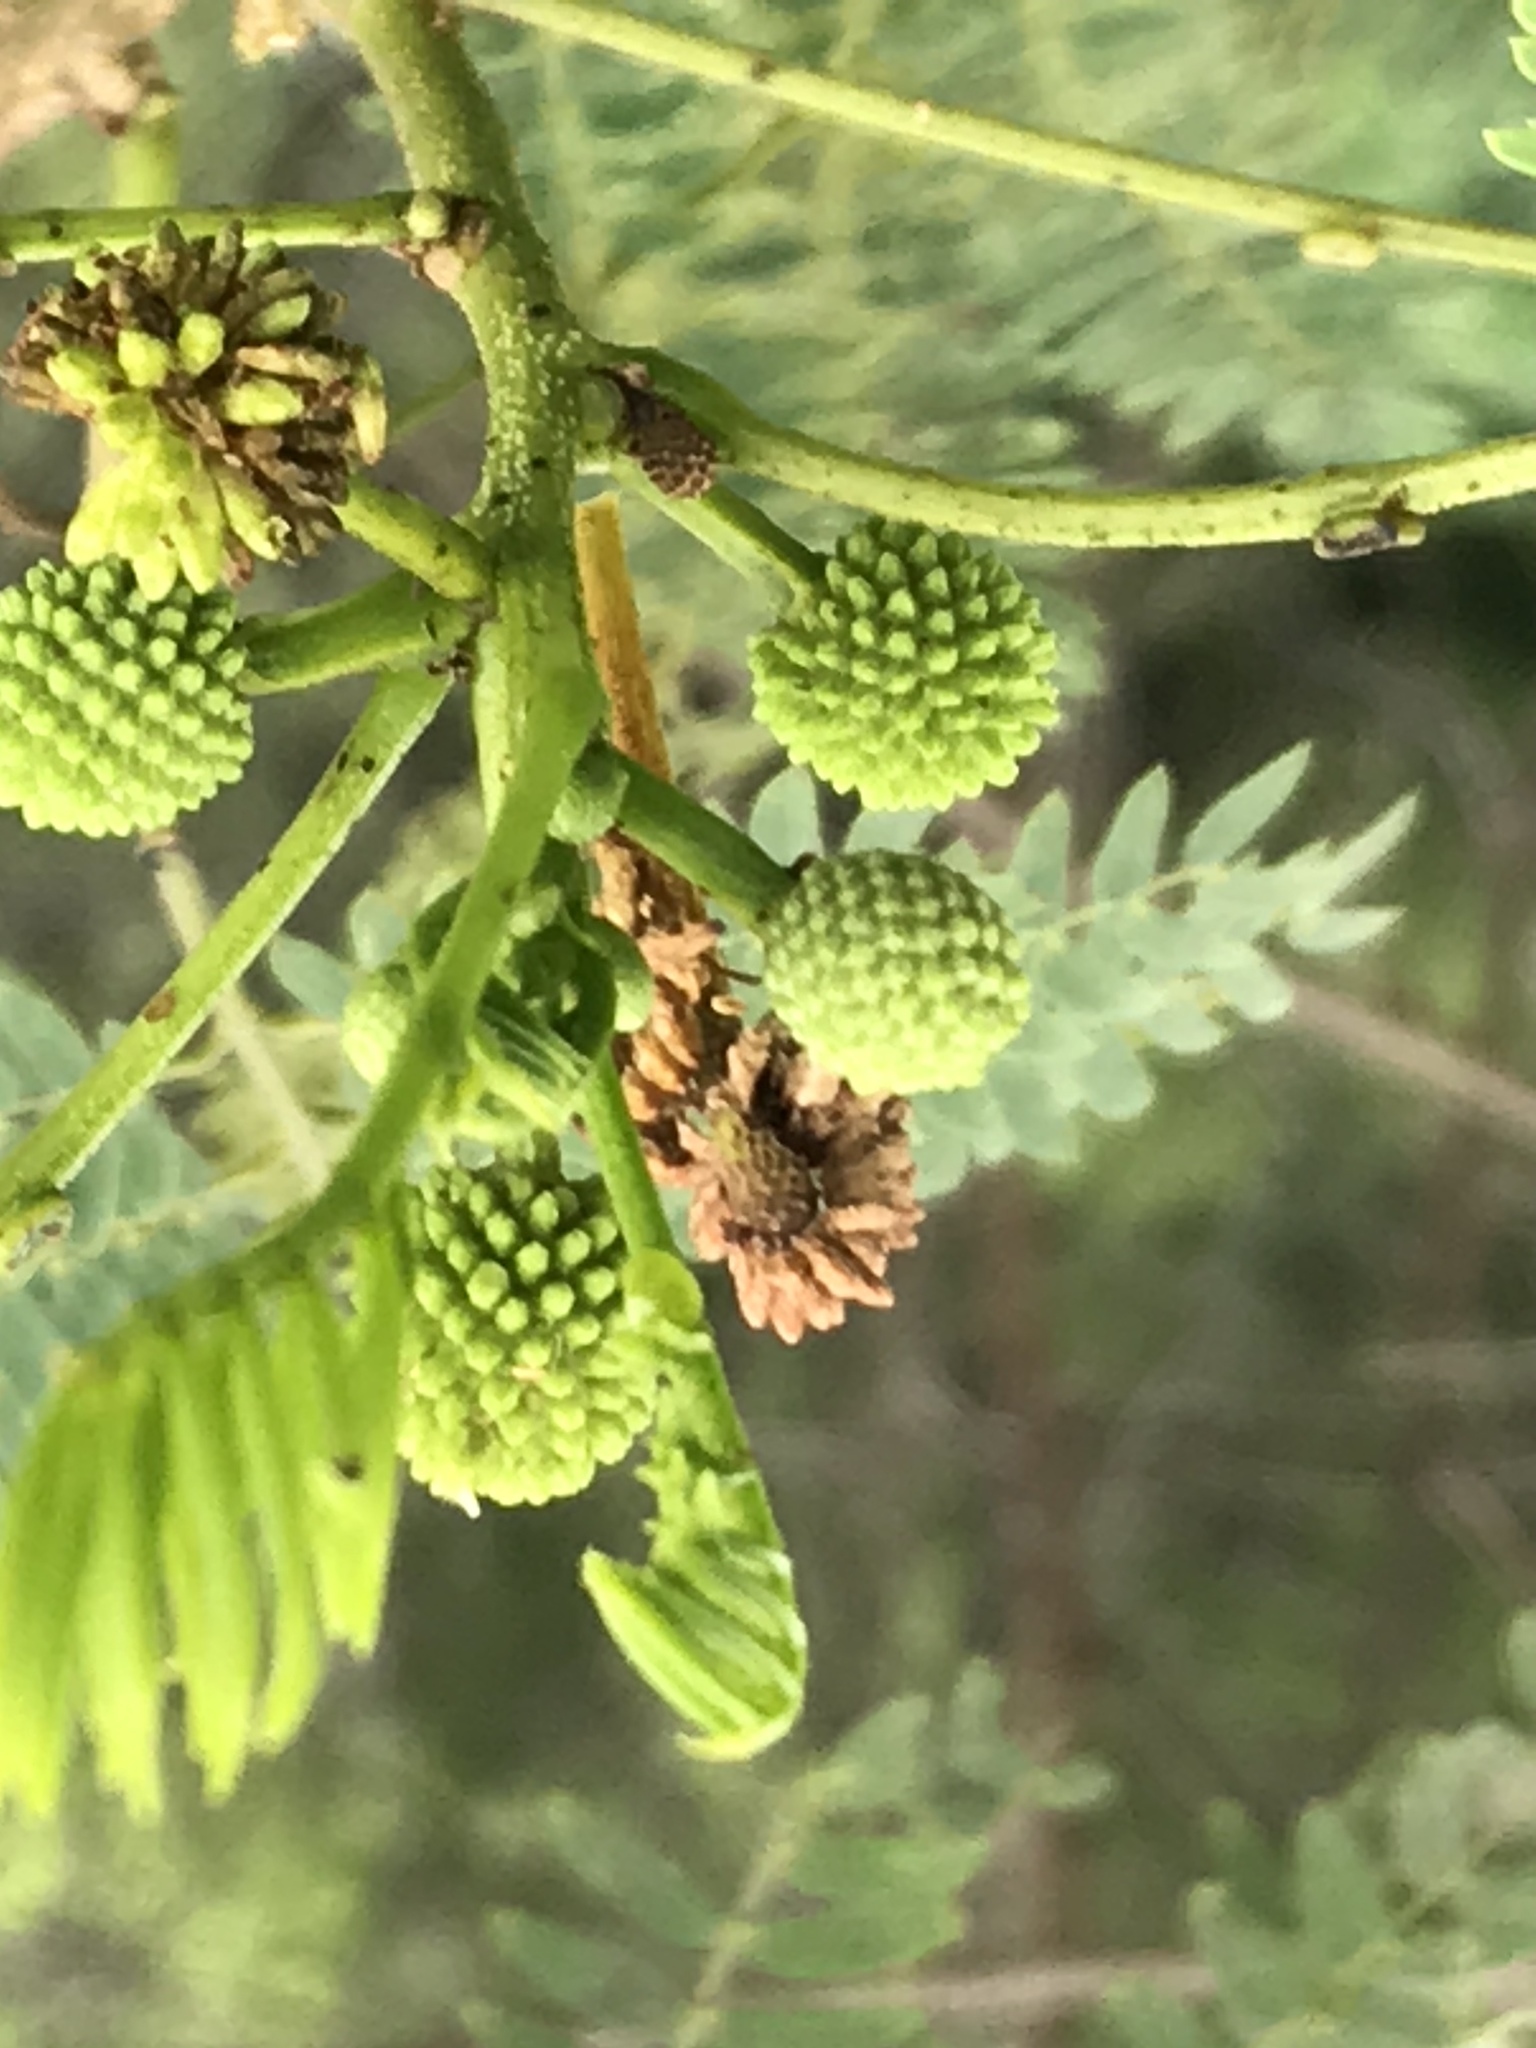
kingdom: Plantae
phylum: Tracheophyta
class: Magnoliopsida
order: Fabales
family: Fabaceae
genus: Leucaena
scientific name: Leucaena leucocephala
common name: White leadtree
